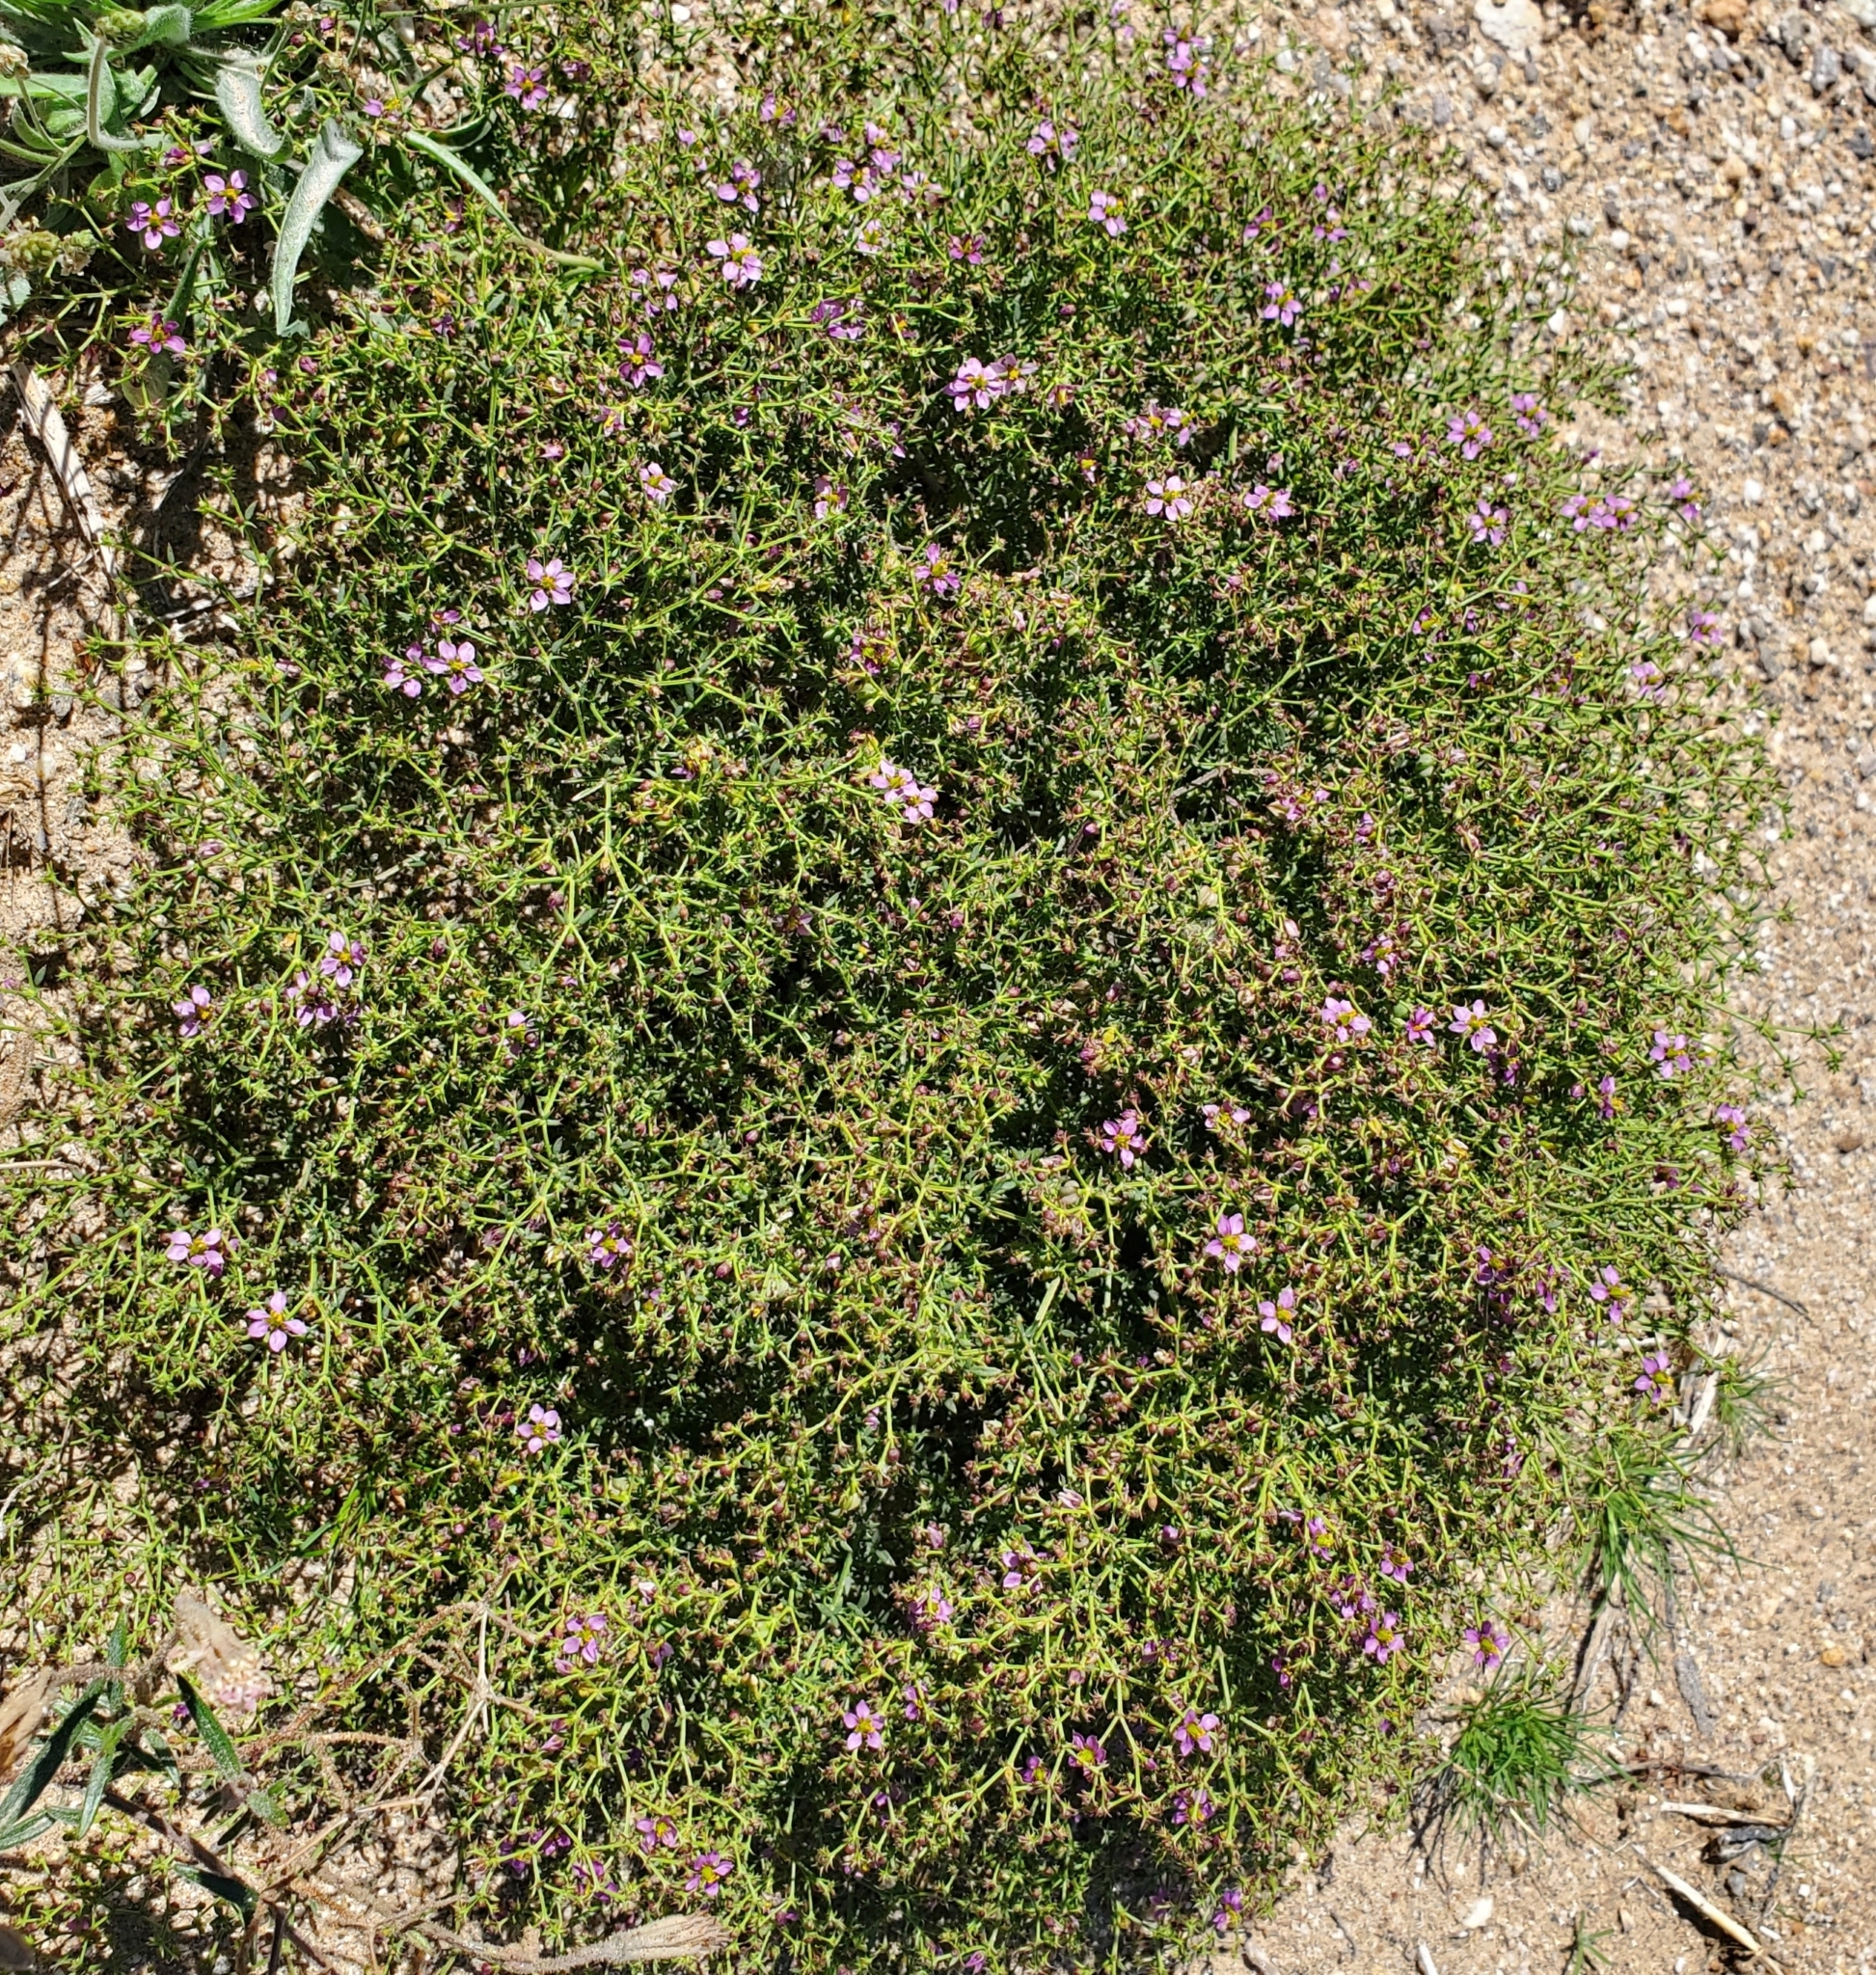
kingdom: Plantae
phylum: Tracheophyta
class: Magnoliopsida
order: Zygophyllales
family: Zygophyllaceae
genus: Fagonia
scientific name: Fagonia laevis
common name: California fagonbush
